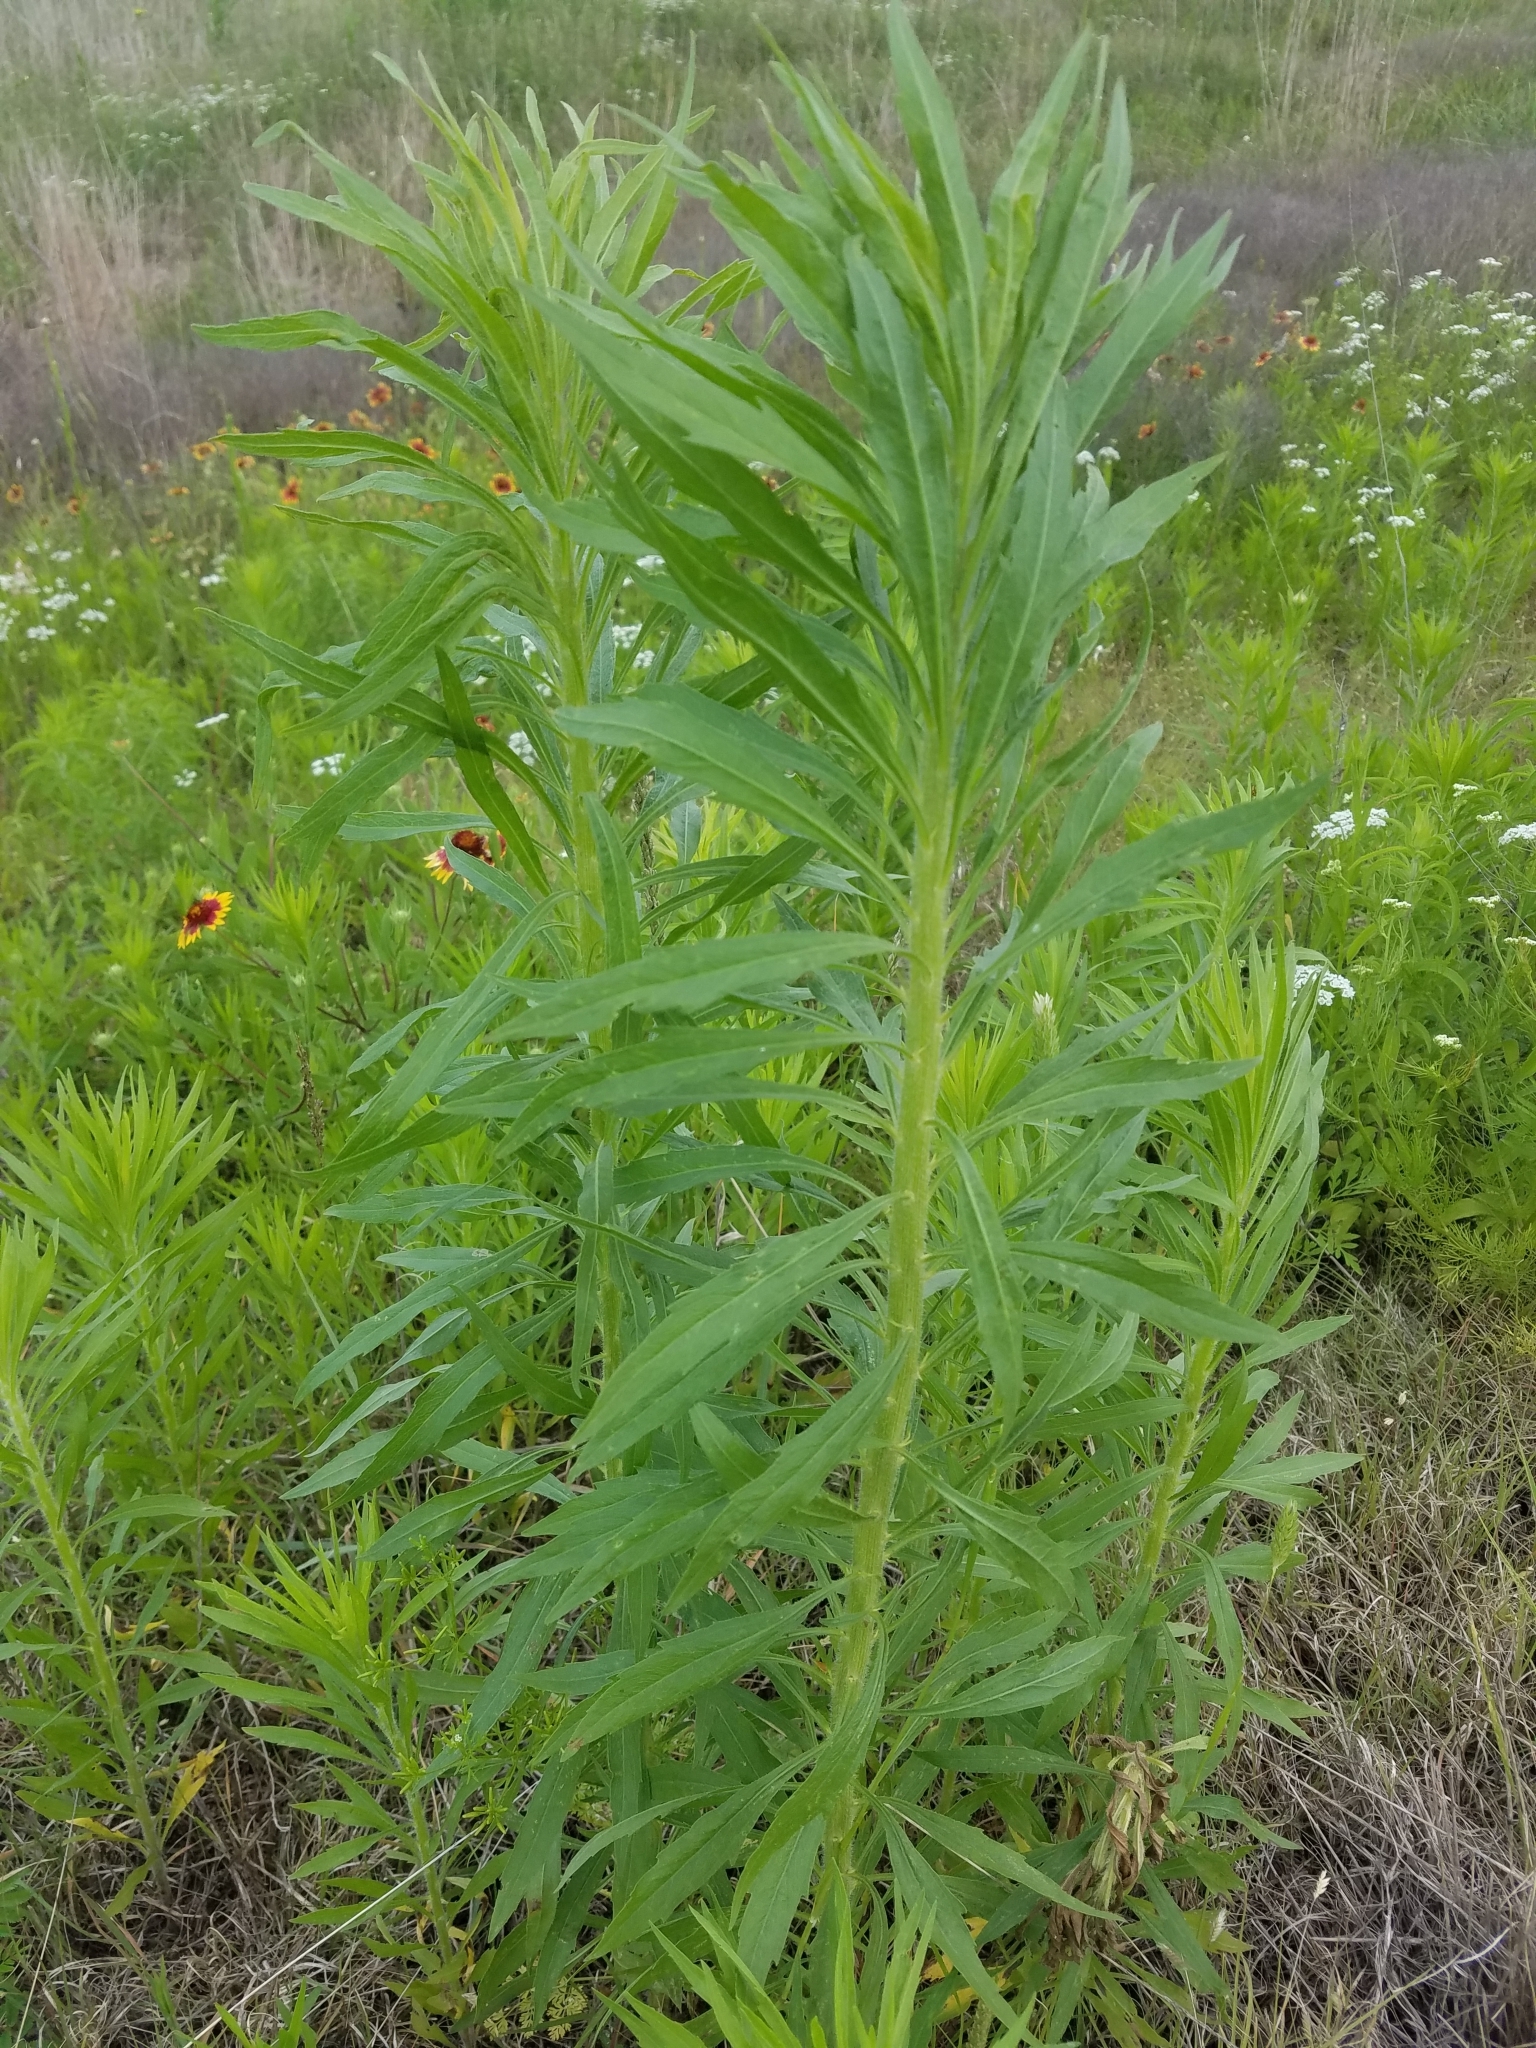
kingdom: Plantae
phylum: Tracheophyta
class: Magnoliopsida
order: Asterales
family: Asteraceae
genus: Erigeron
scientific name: Erigeron canadensis
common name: Canadian fleabane
